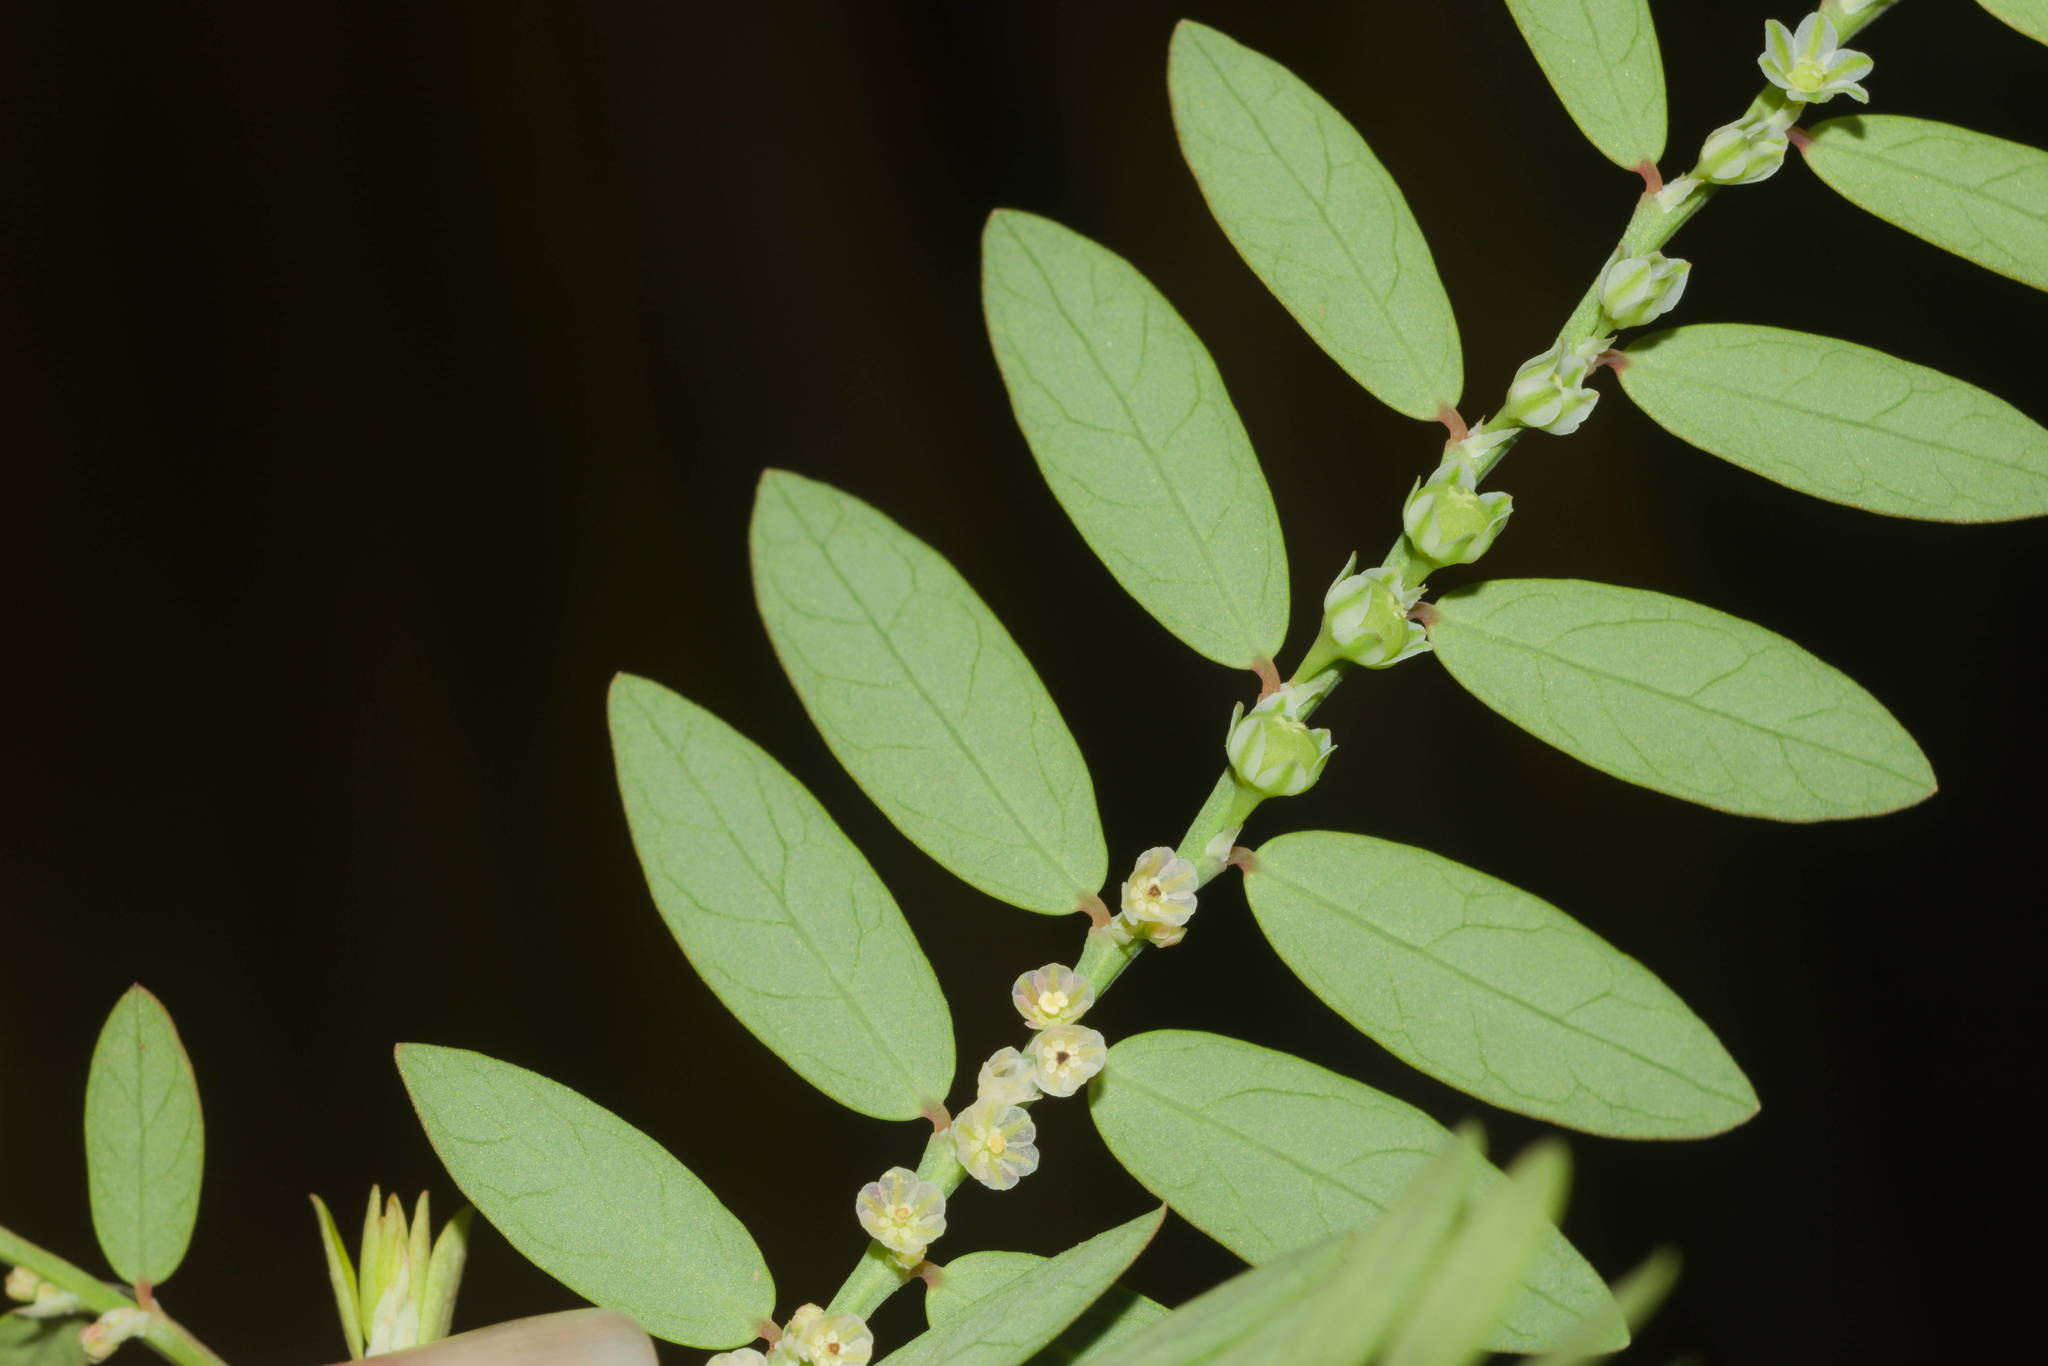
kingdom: Plantae
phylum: Tracheophyta
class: Magnoliopsida
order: Malpighiales
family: Phyllanthaceae
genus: Phyllanthus
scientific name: Phyllanthus debilis
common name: Niruri
